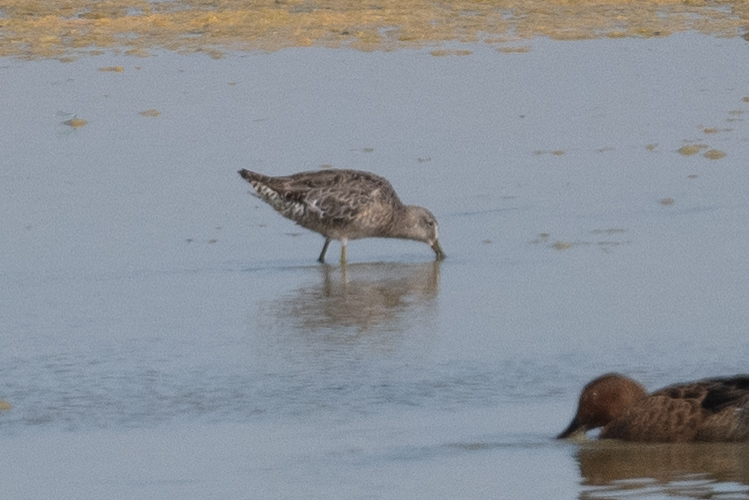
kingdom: Animalia
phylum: Chordata
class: Aves
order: Charadriiformes
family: Scolopacidae
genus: Limnodromus
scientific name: Limnodromus scolopaceus
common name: Long-billed dowitcher
